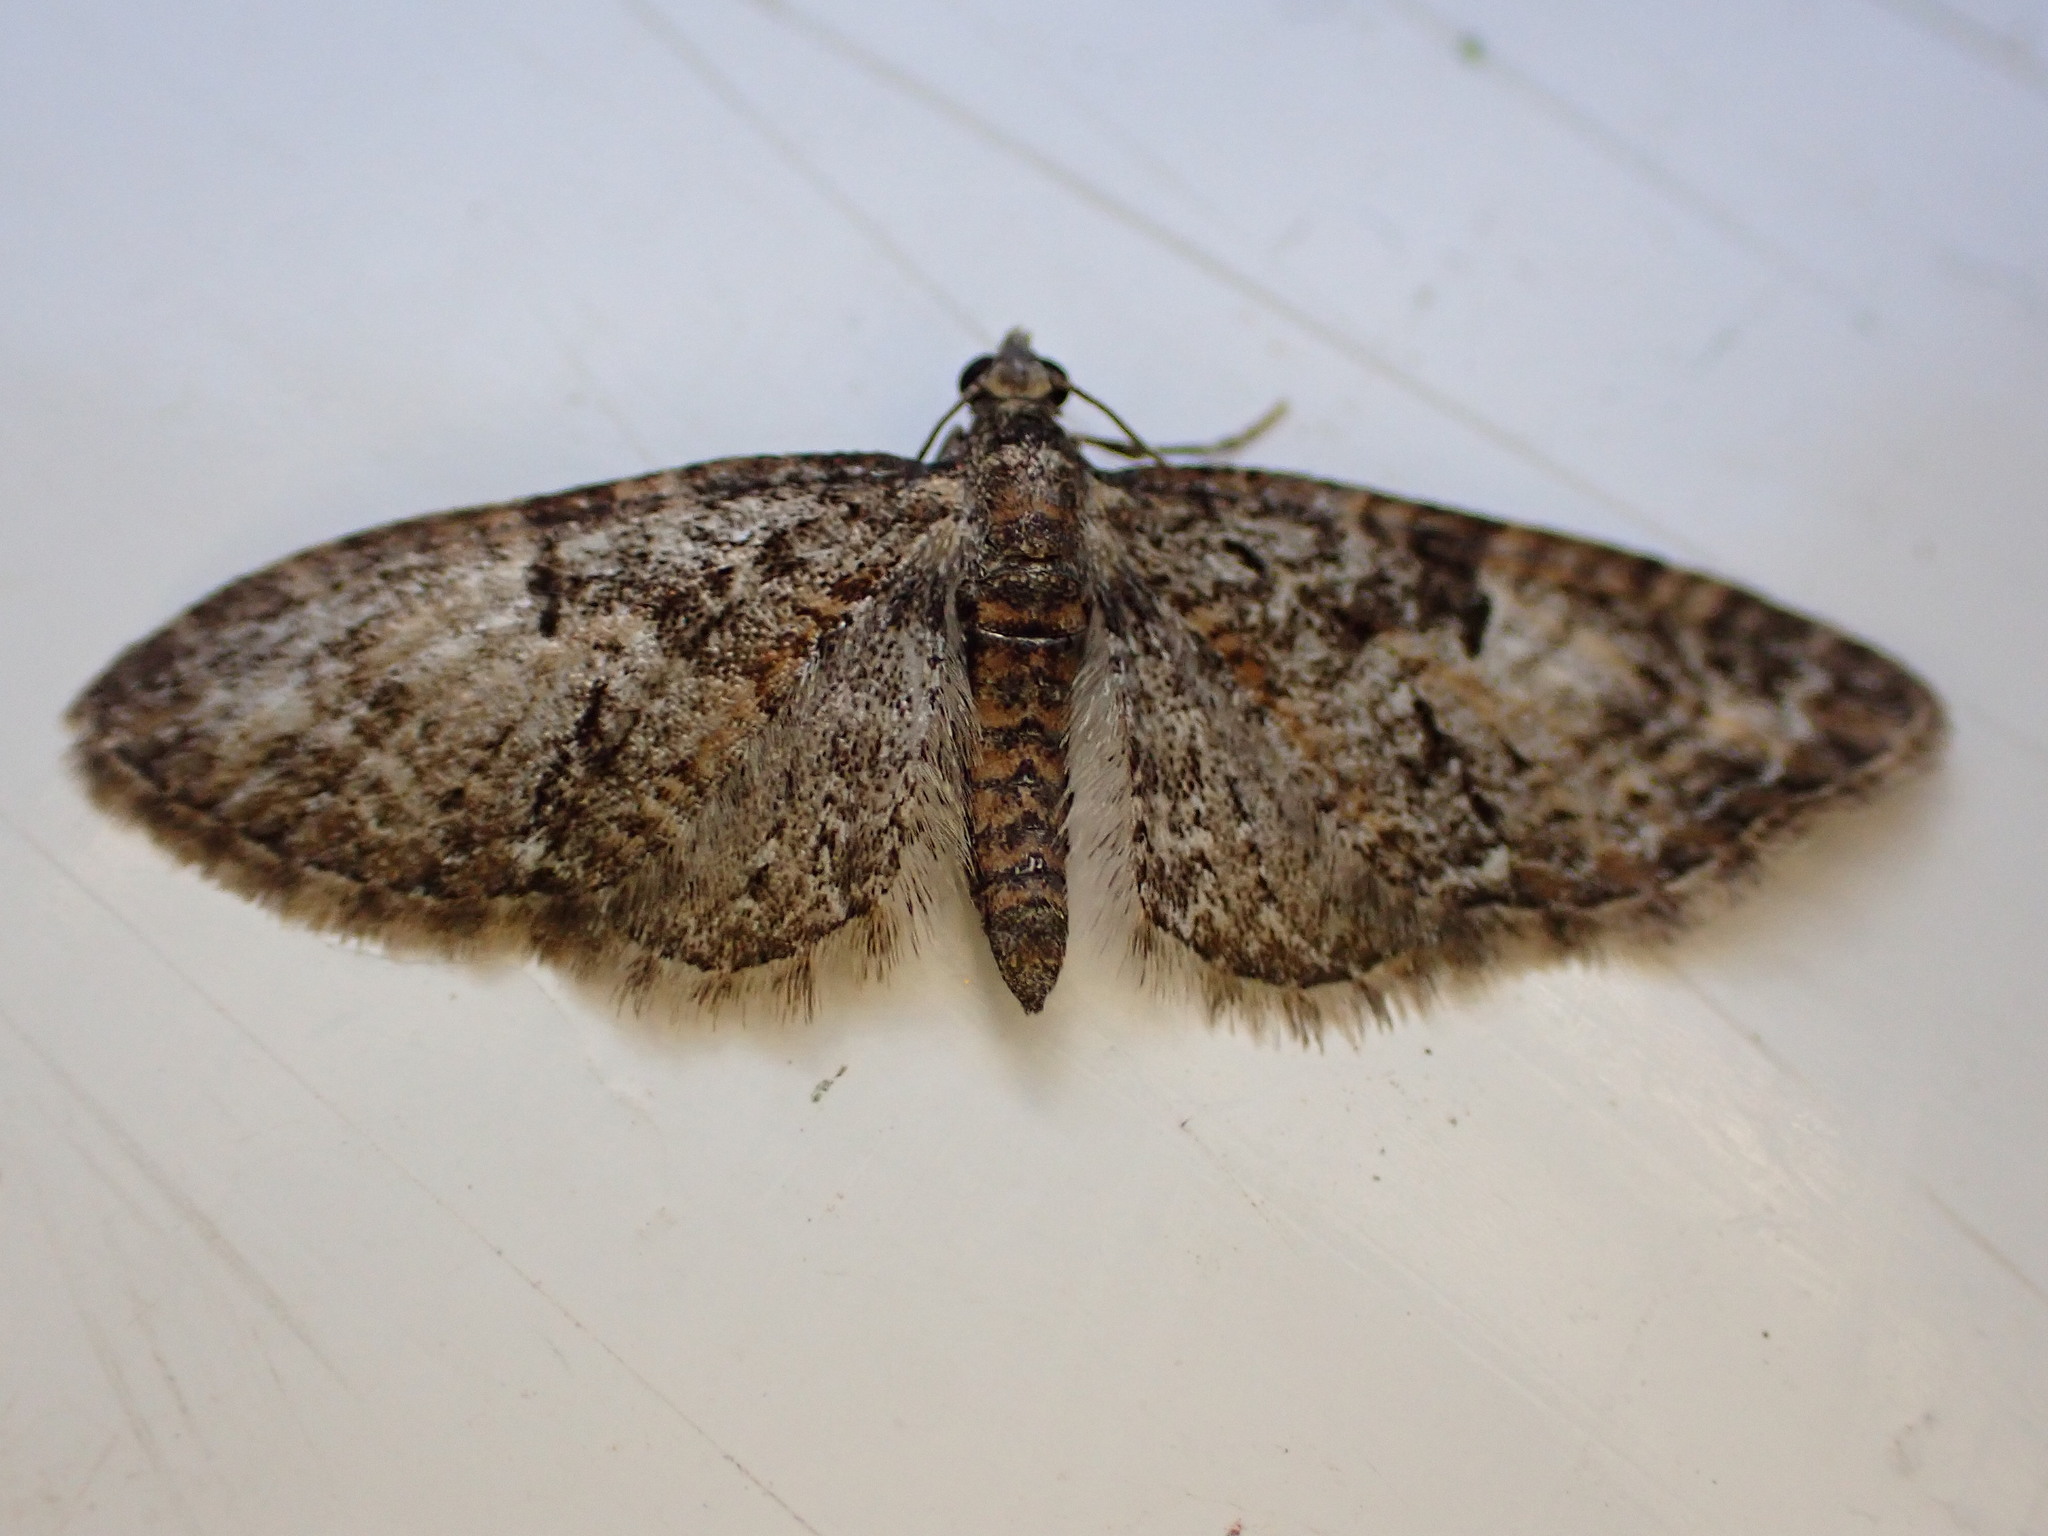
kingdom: Animalia
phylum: Arthropoda
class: Insecta
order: Lepidoptera
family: Geometridae
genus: Eupithecia
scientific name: Eupithecia abbreviata
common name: Brindled pug
